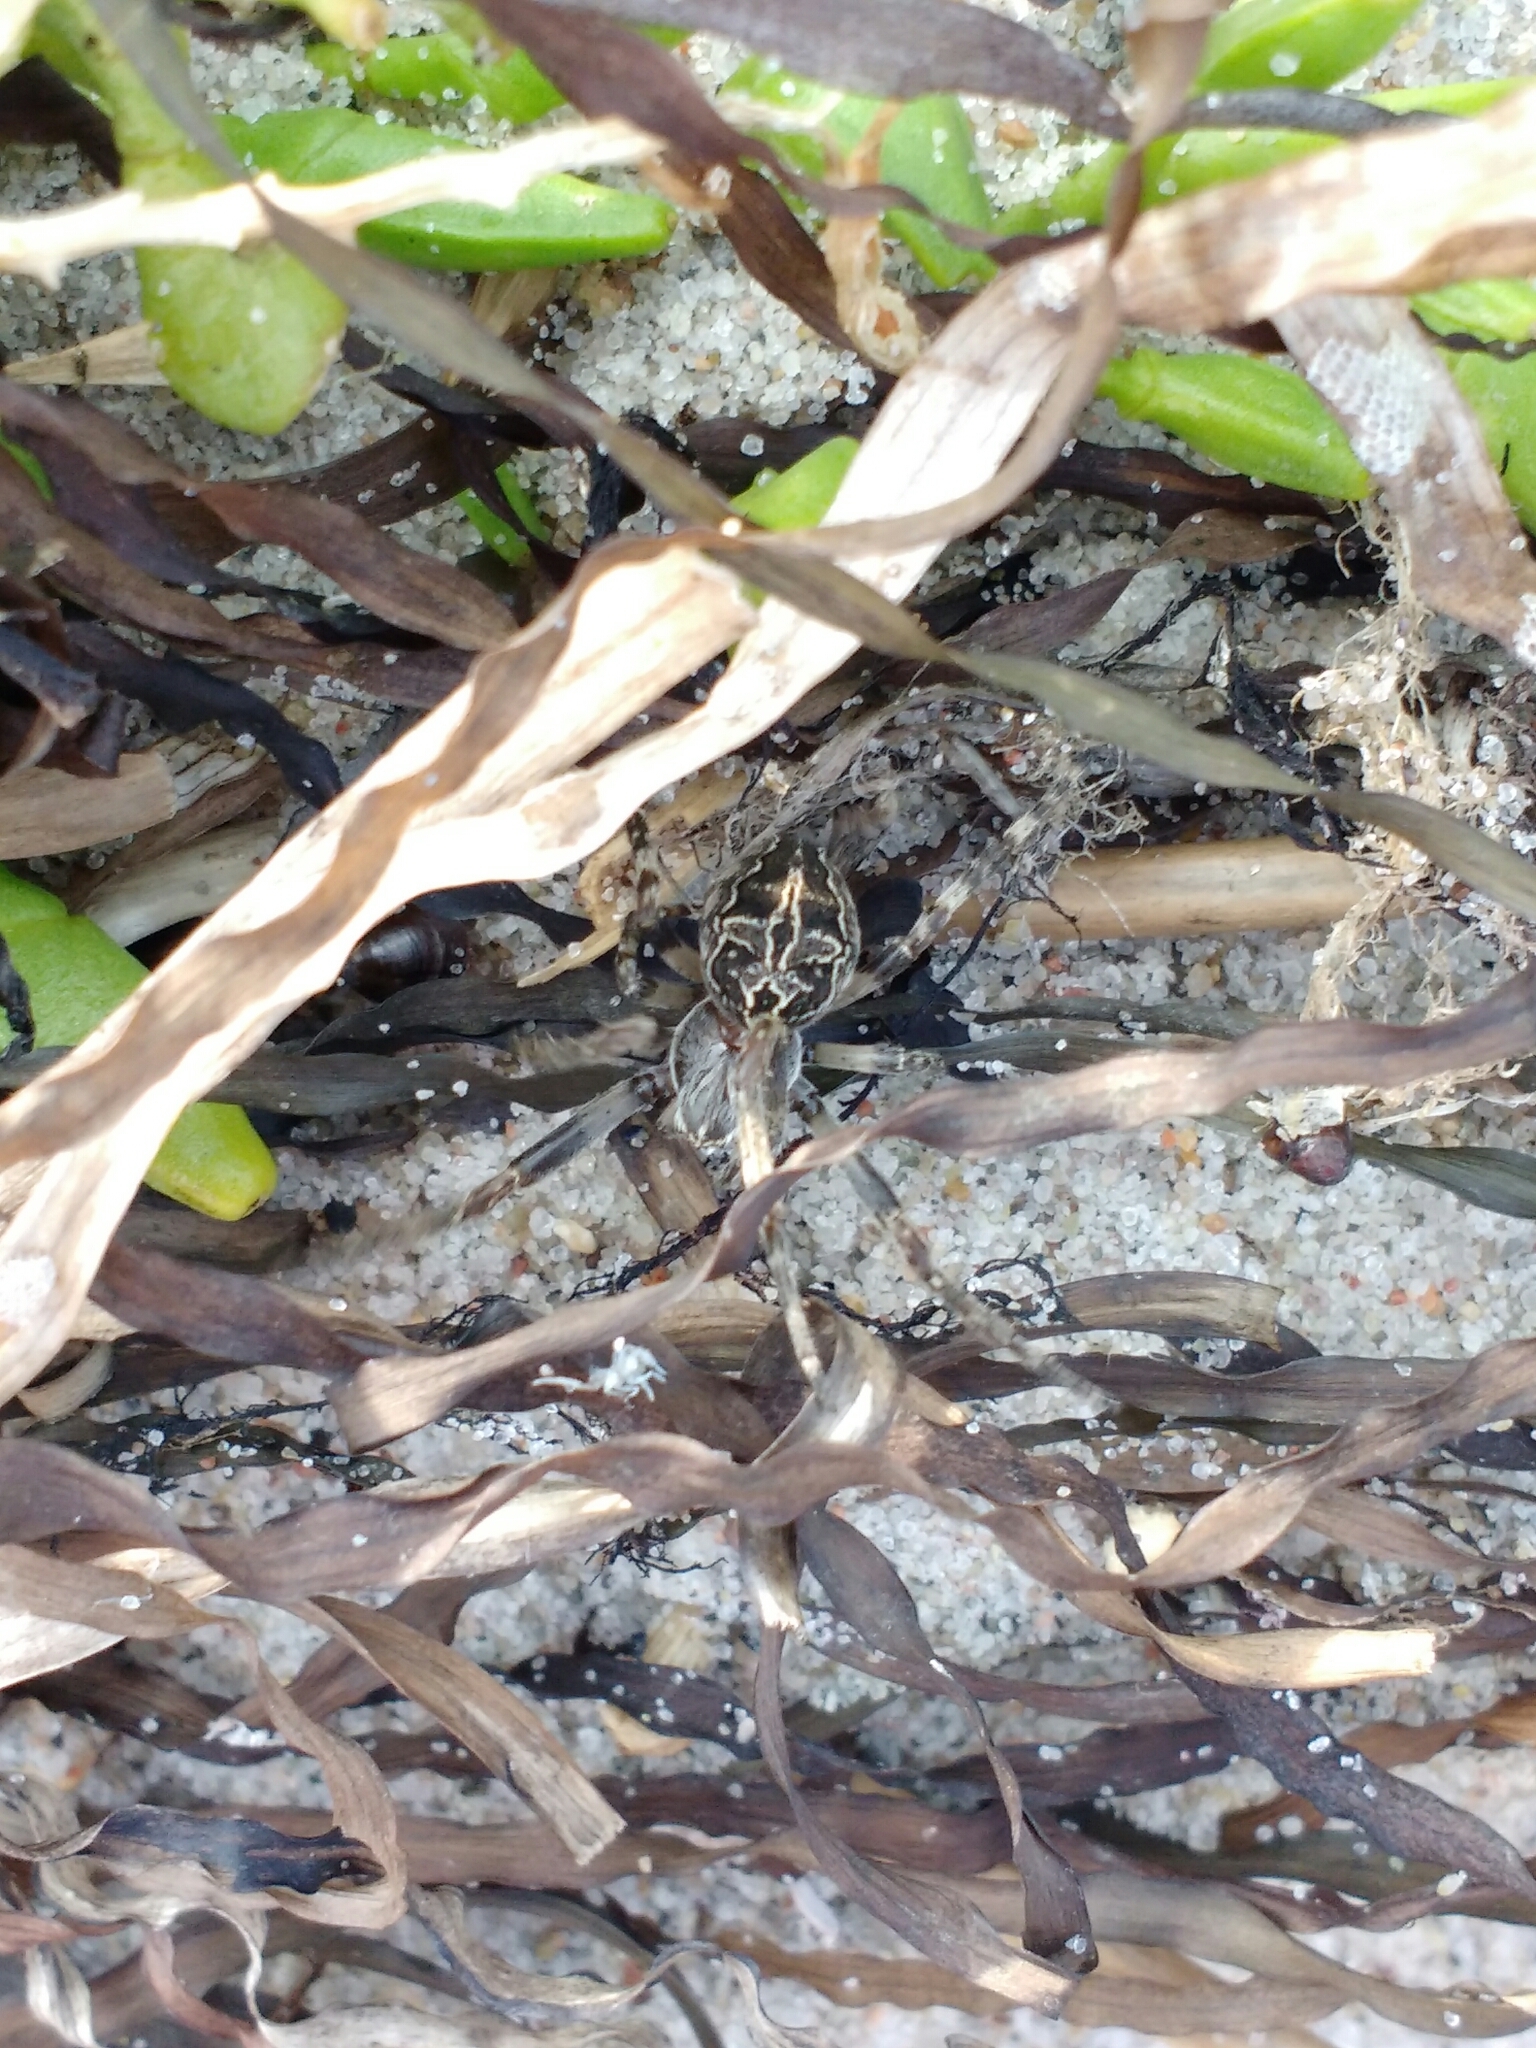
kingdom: Animalia
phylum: Arthropoda
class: Arachnida
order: Araneae
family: Araneidae
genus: Larinioides
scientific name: Larinioides sclopetarius
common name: Bridge orbweaver
